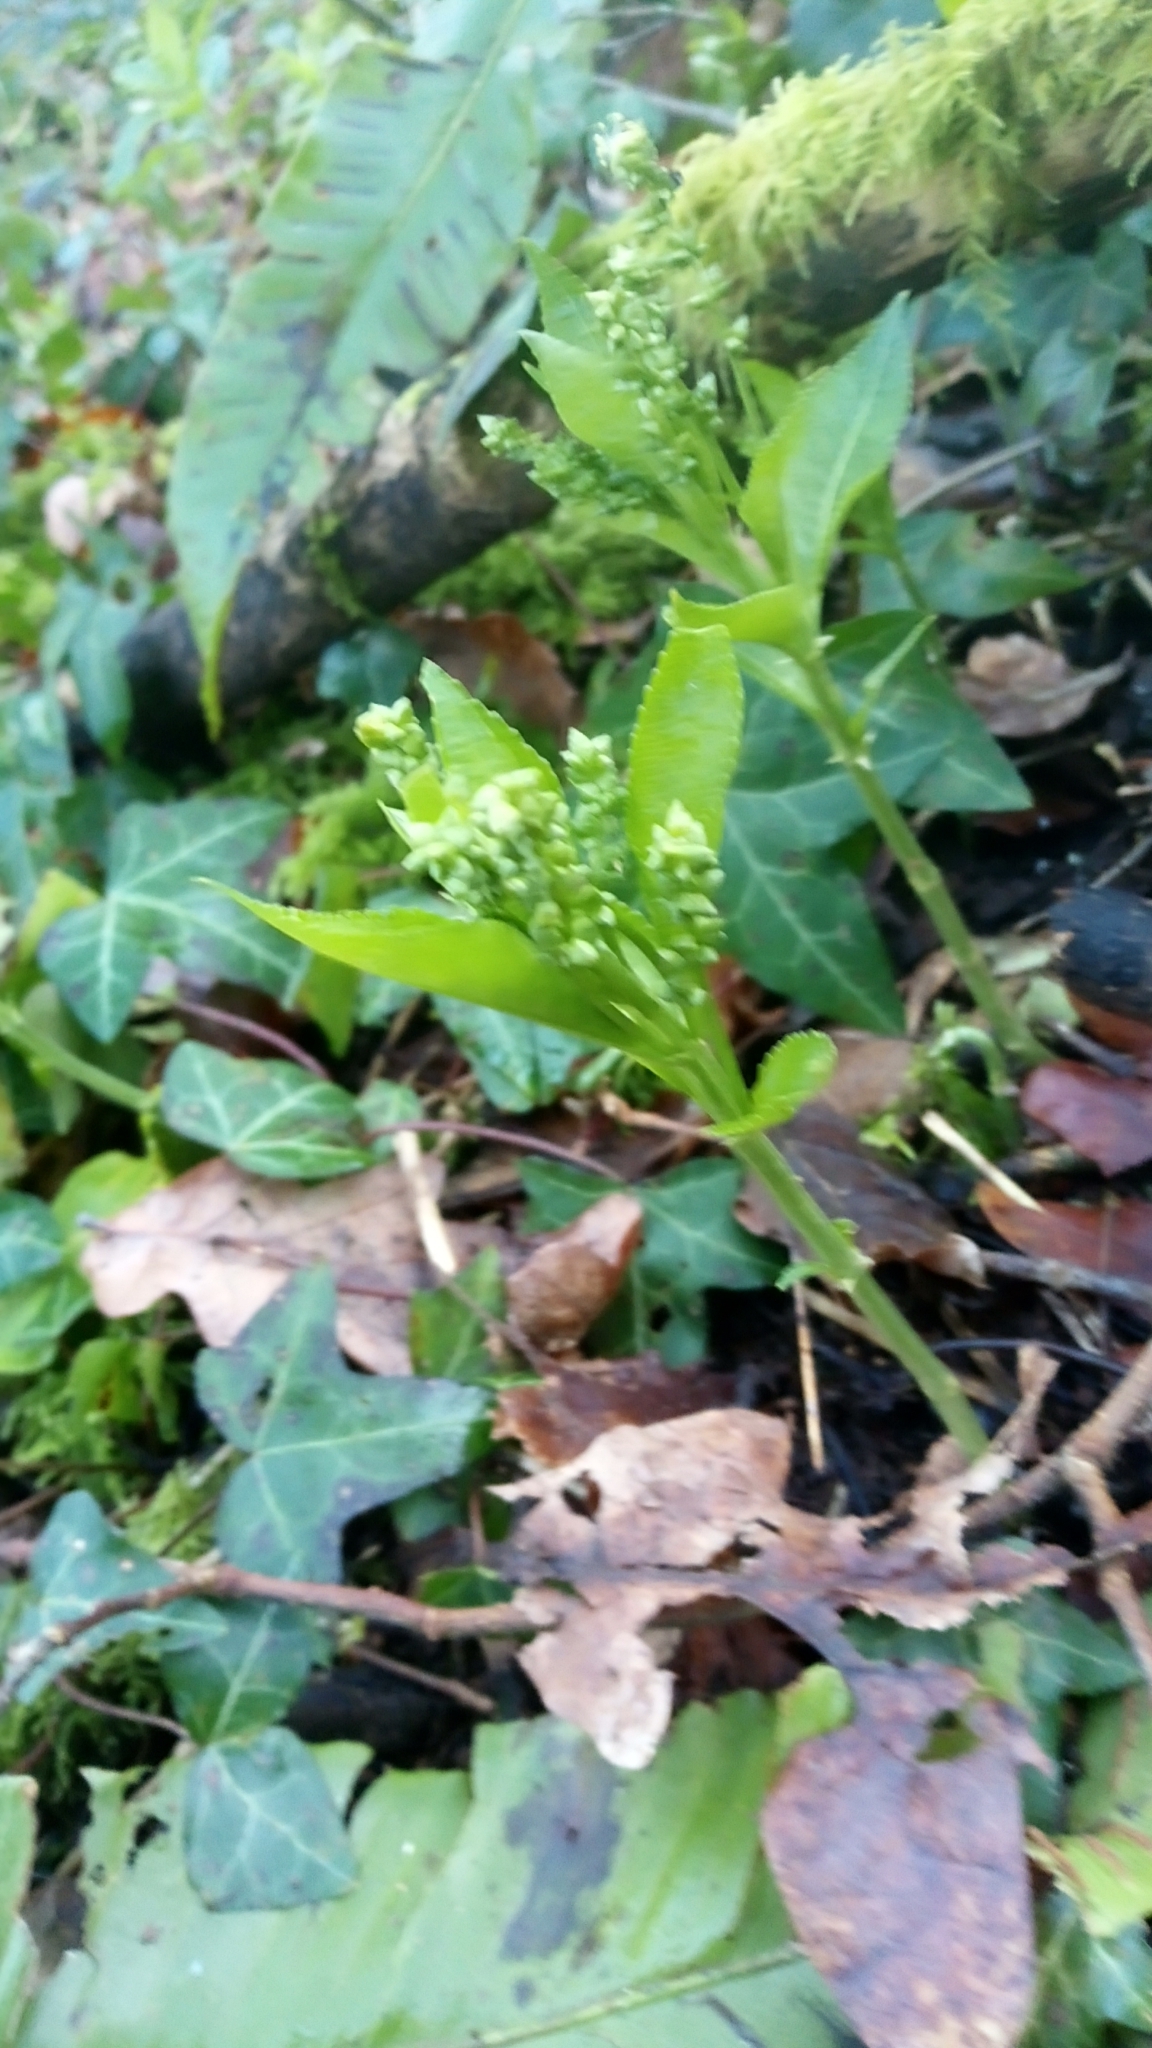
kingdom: Plantae
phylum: Tracheophyta
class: Magnoliopsida
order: Malpighiales
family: Euphorbiaceae
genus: Mercurialis
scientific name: Mercurialis perennis
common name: Dog mercury
